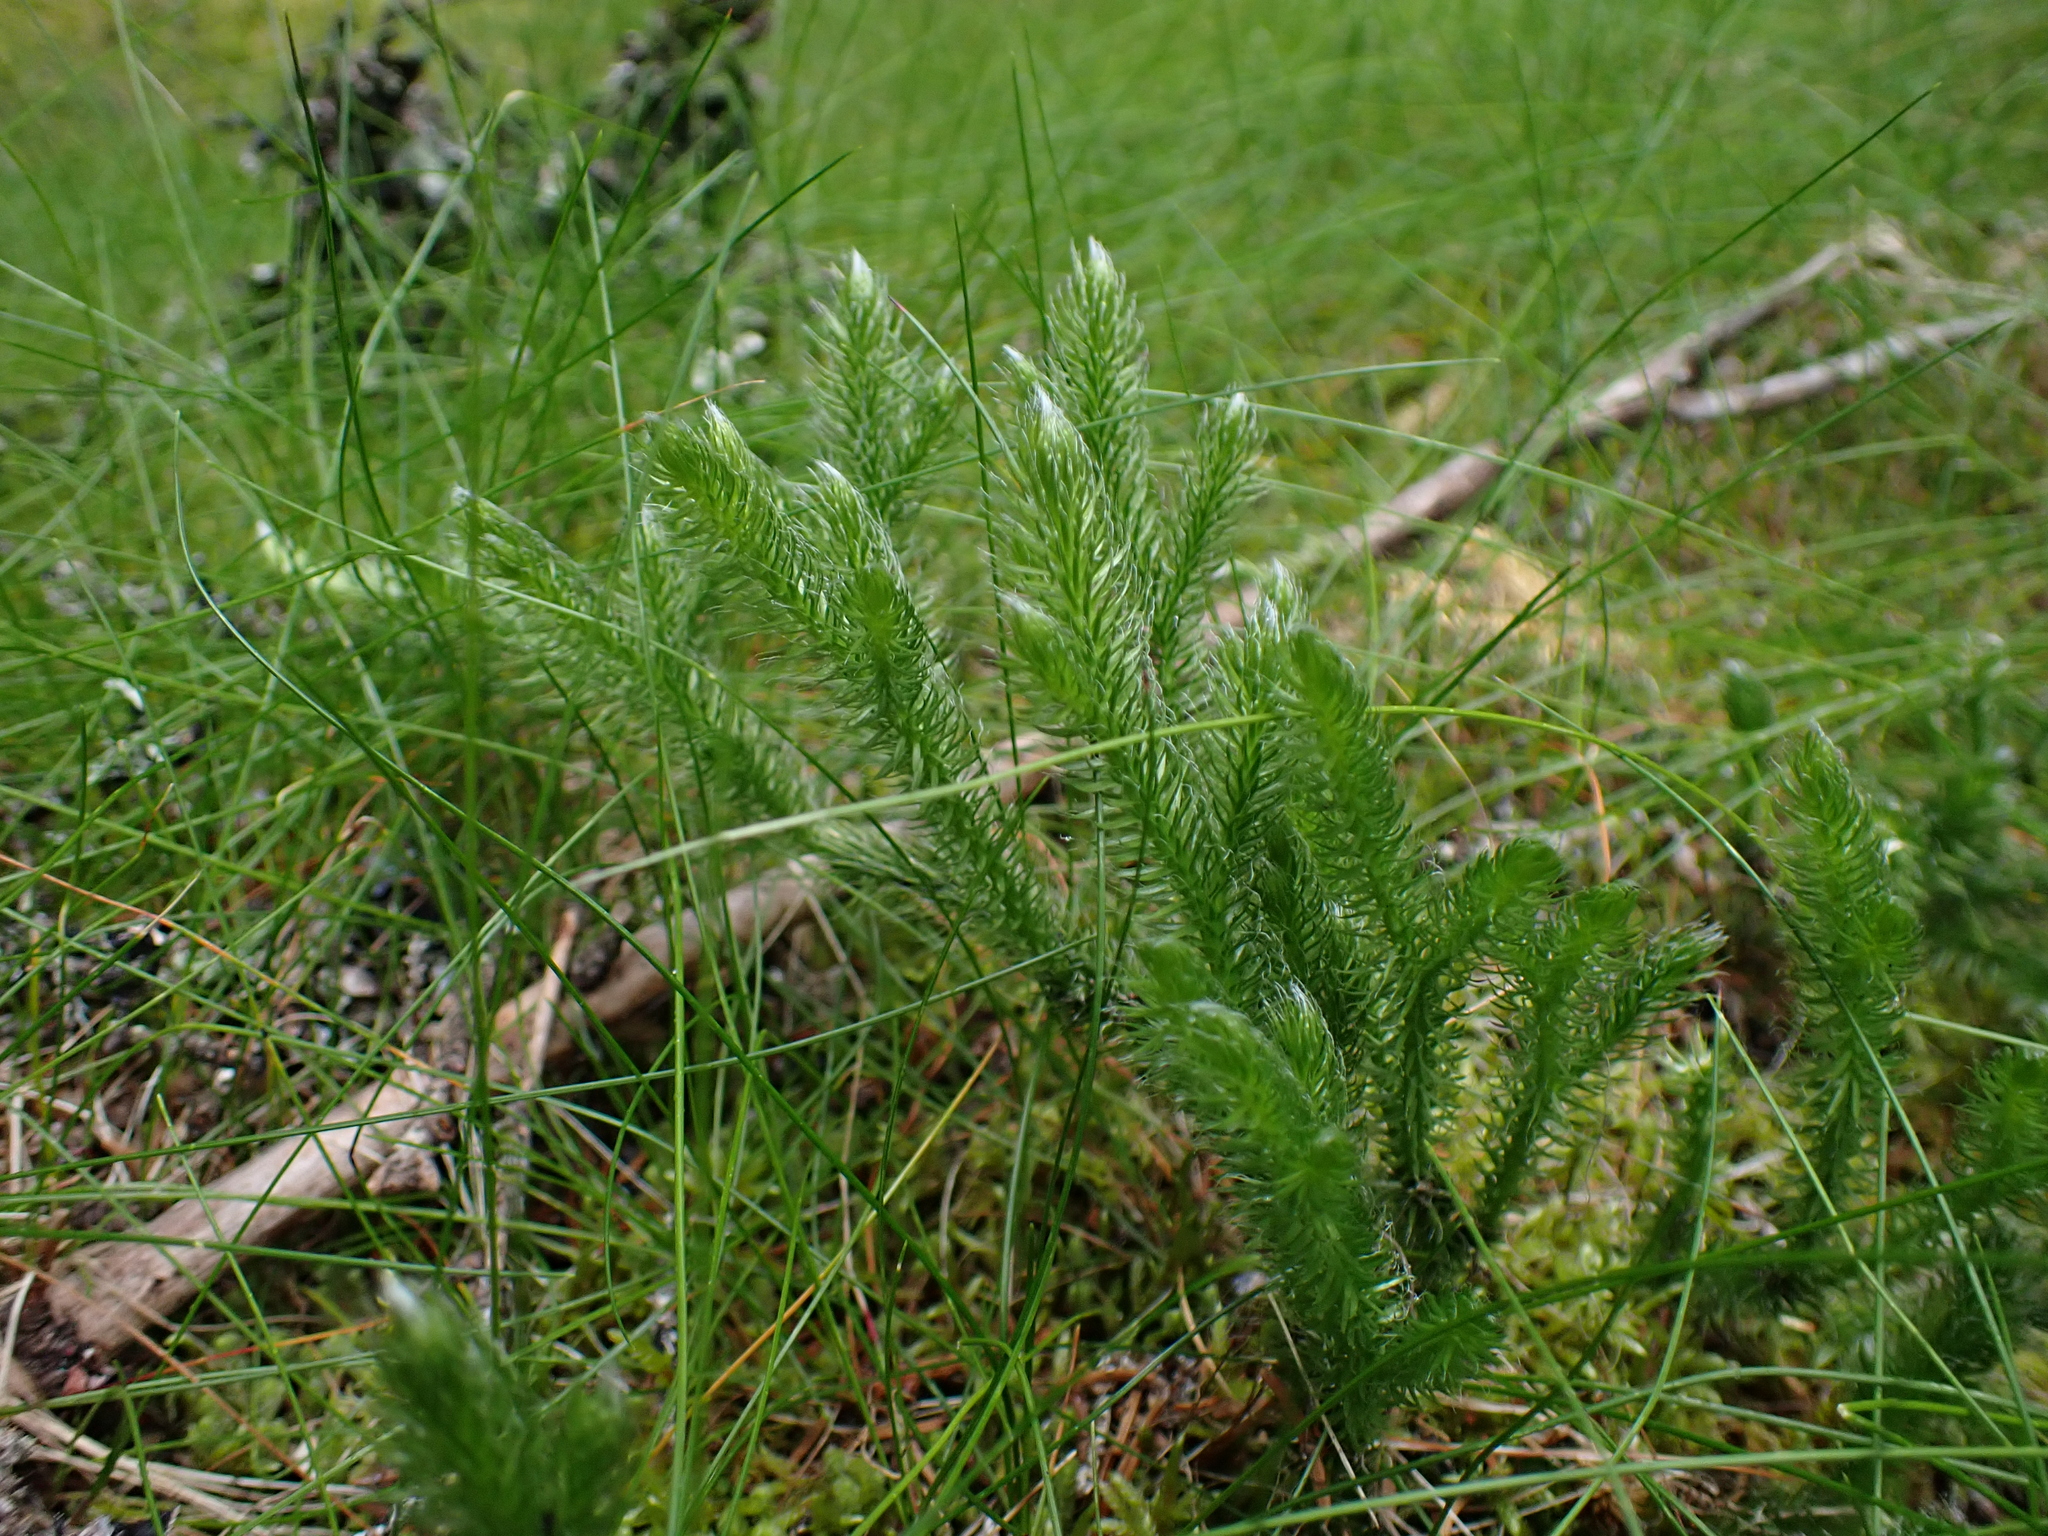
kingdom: Plantae
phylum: Tracheophyta
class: Lycopodiopsida
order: Lycopodiales
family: Lycopodiaceae
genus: Lycopodium
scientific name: Lycopodium clavatum
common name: Stag's-horn clubmoss
